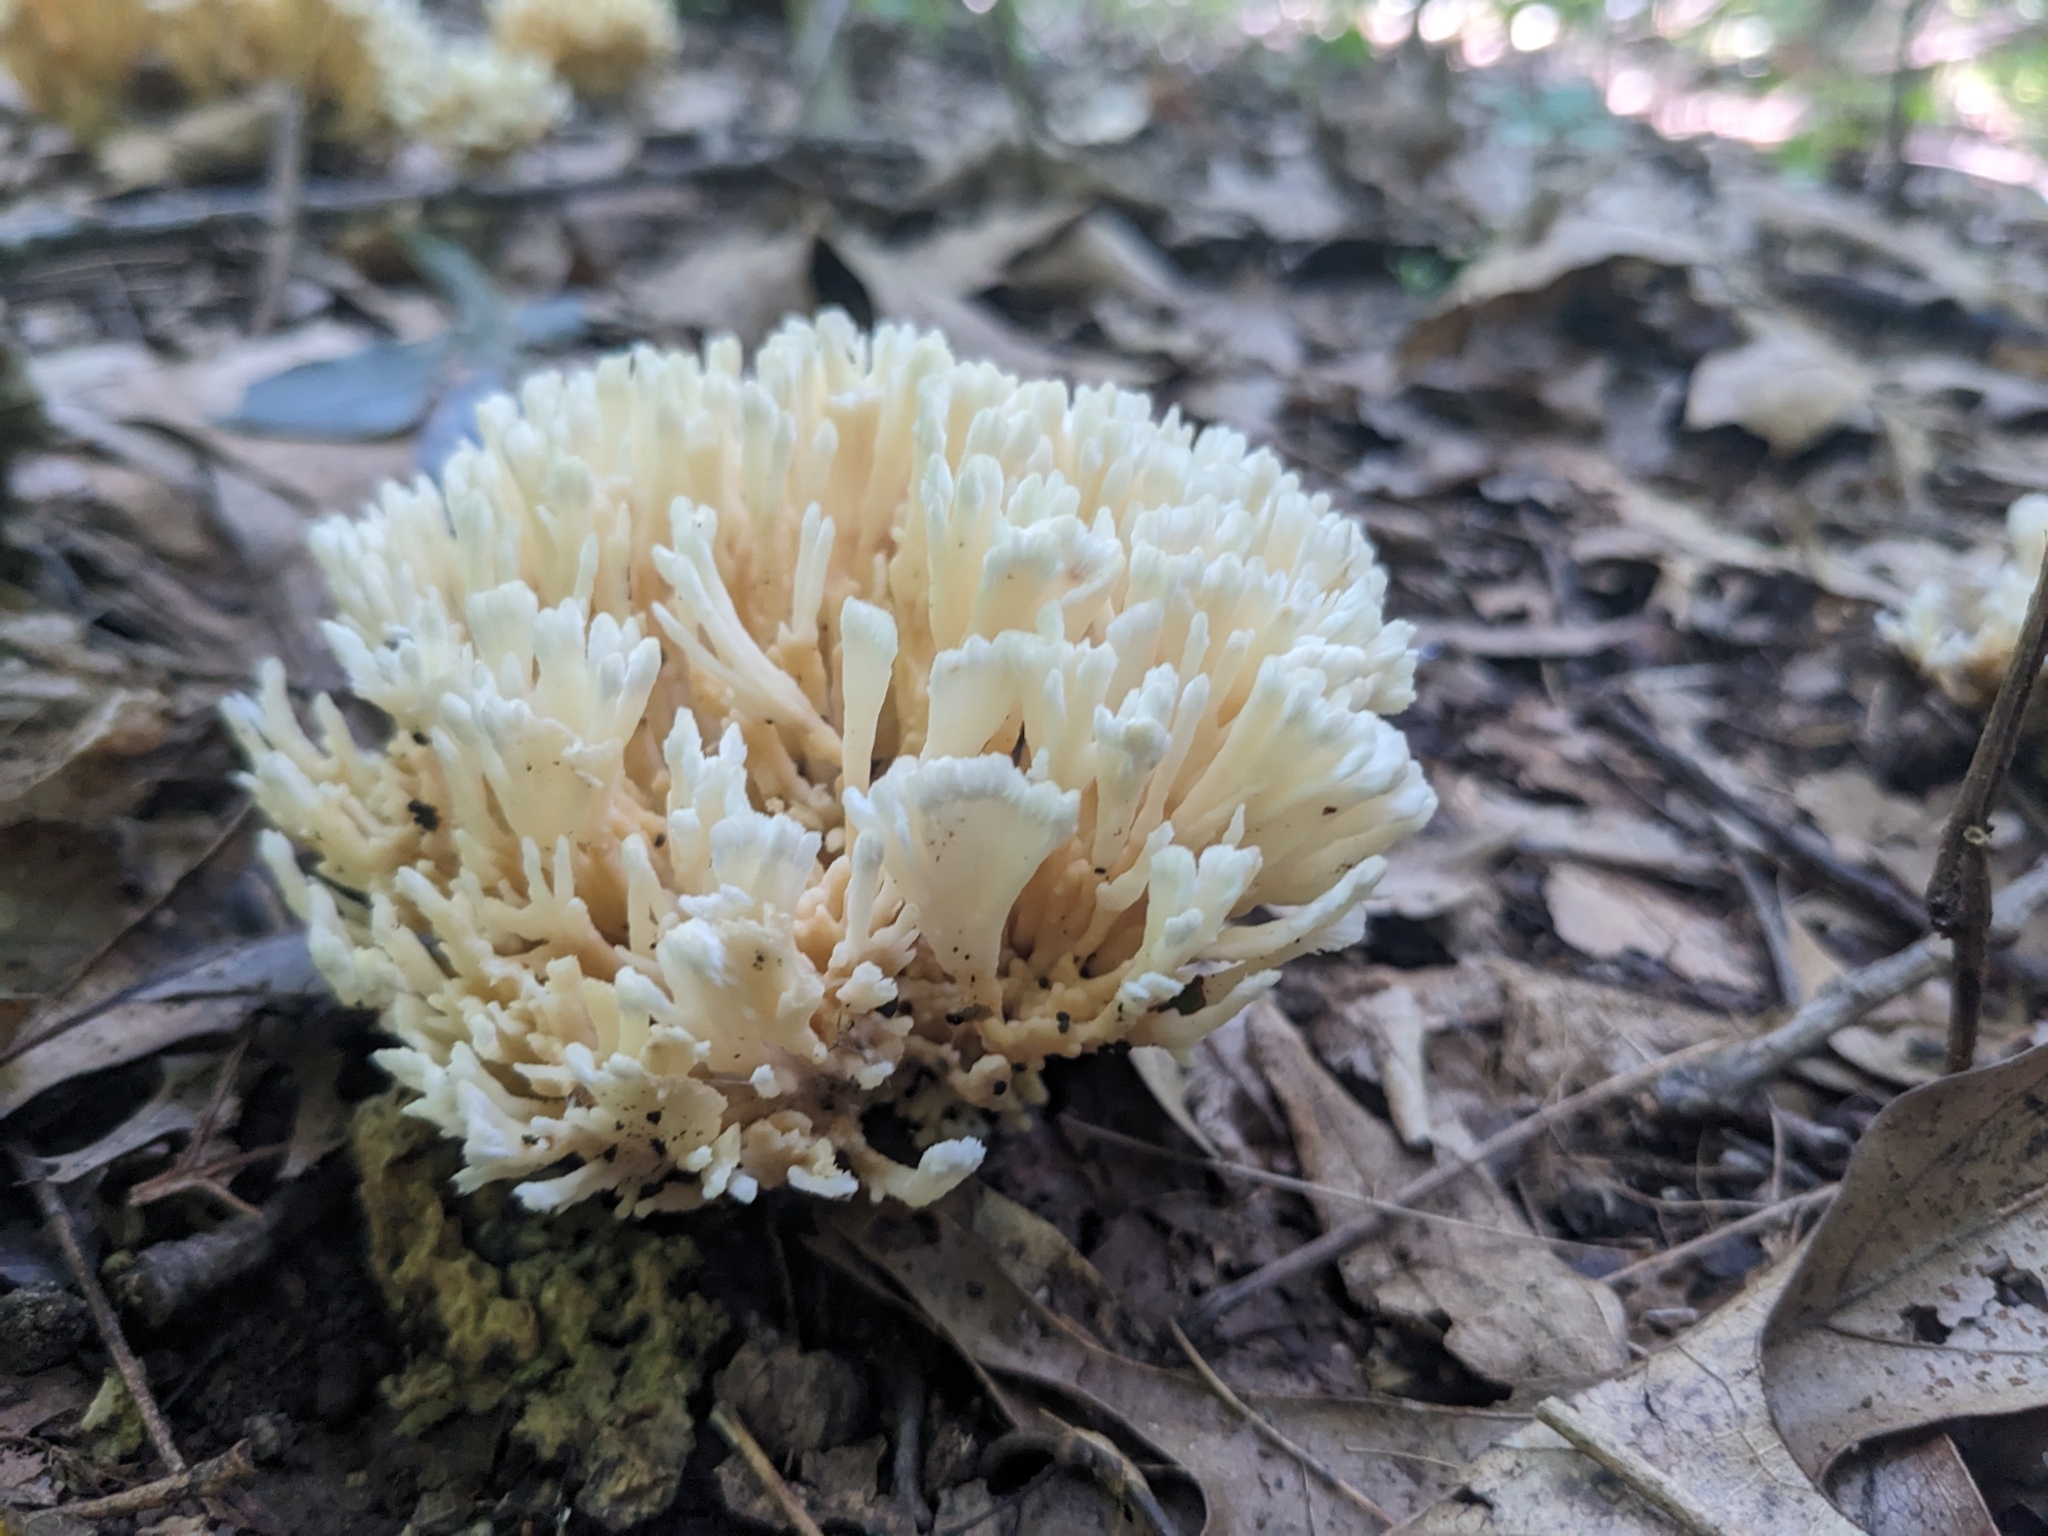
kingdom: Fungi
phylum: Basidiomycota
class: Agaricomycetes
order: Sebacinales
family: Sebacinaceae
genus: Sebacina
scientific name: Sebacina schweinitzii
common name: Jellied false coral fungus
